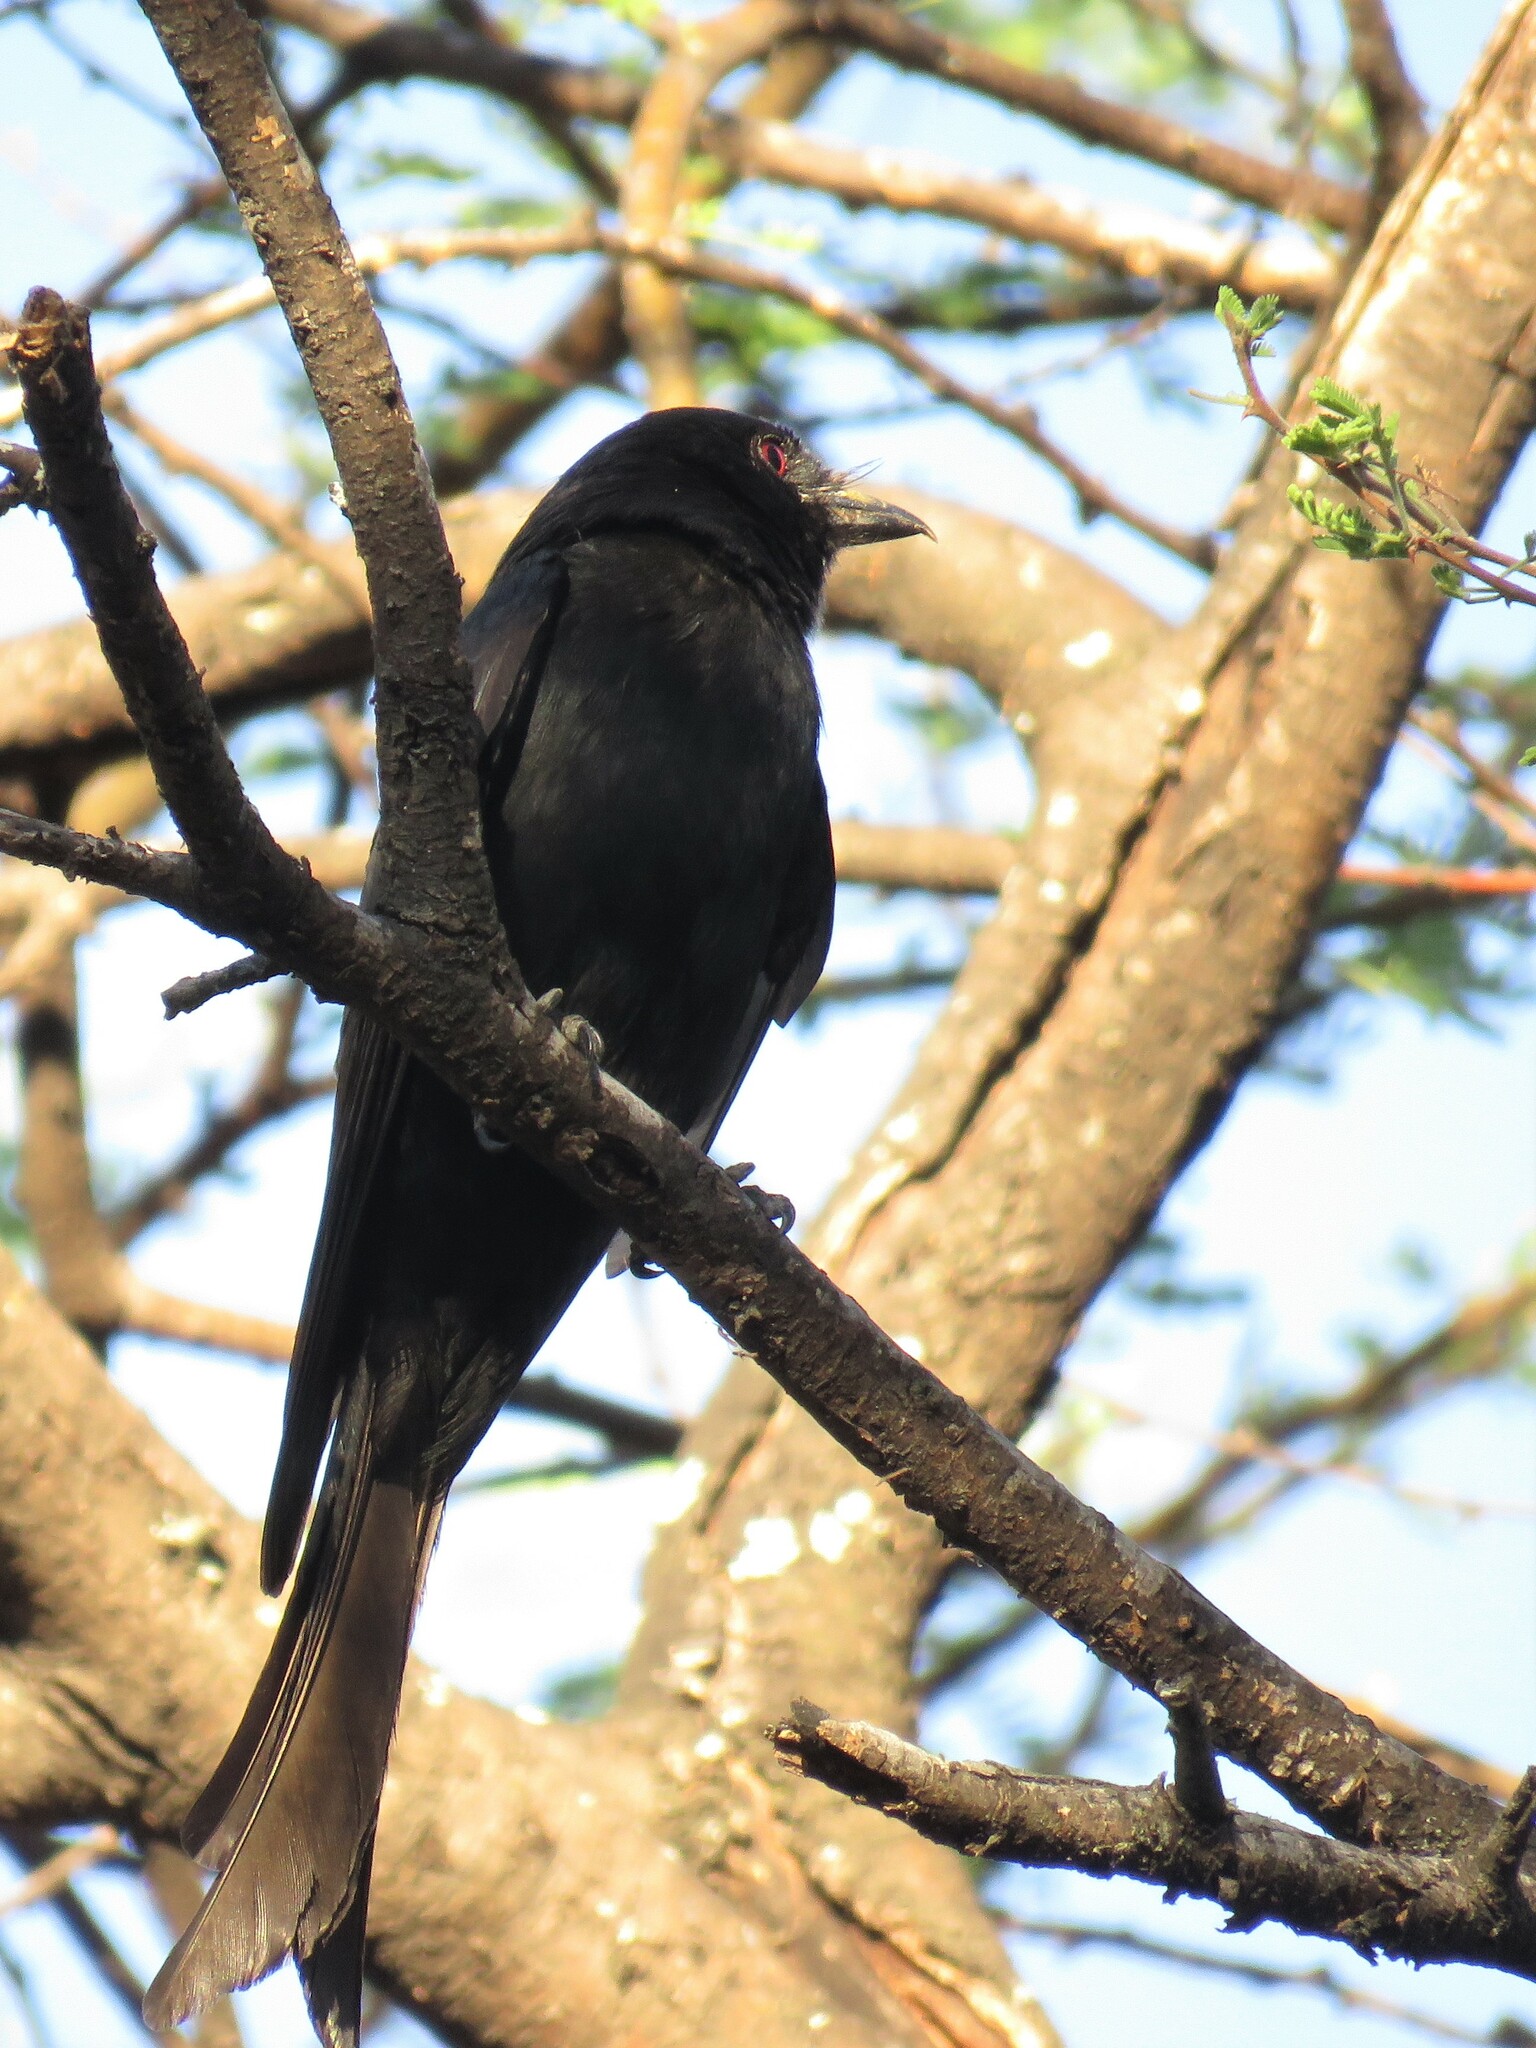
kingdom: Animalia
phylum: Chordata
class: Aves
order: Passeriformes
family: Dicruridae
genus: Dicrurus
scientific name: Dicrurus adsimilis
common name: Fork-tailed drongo
